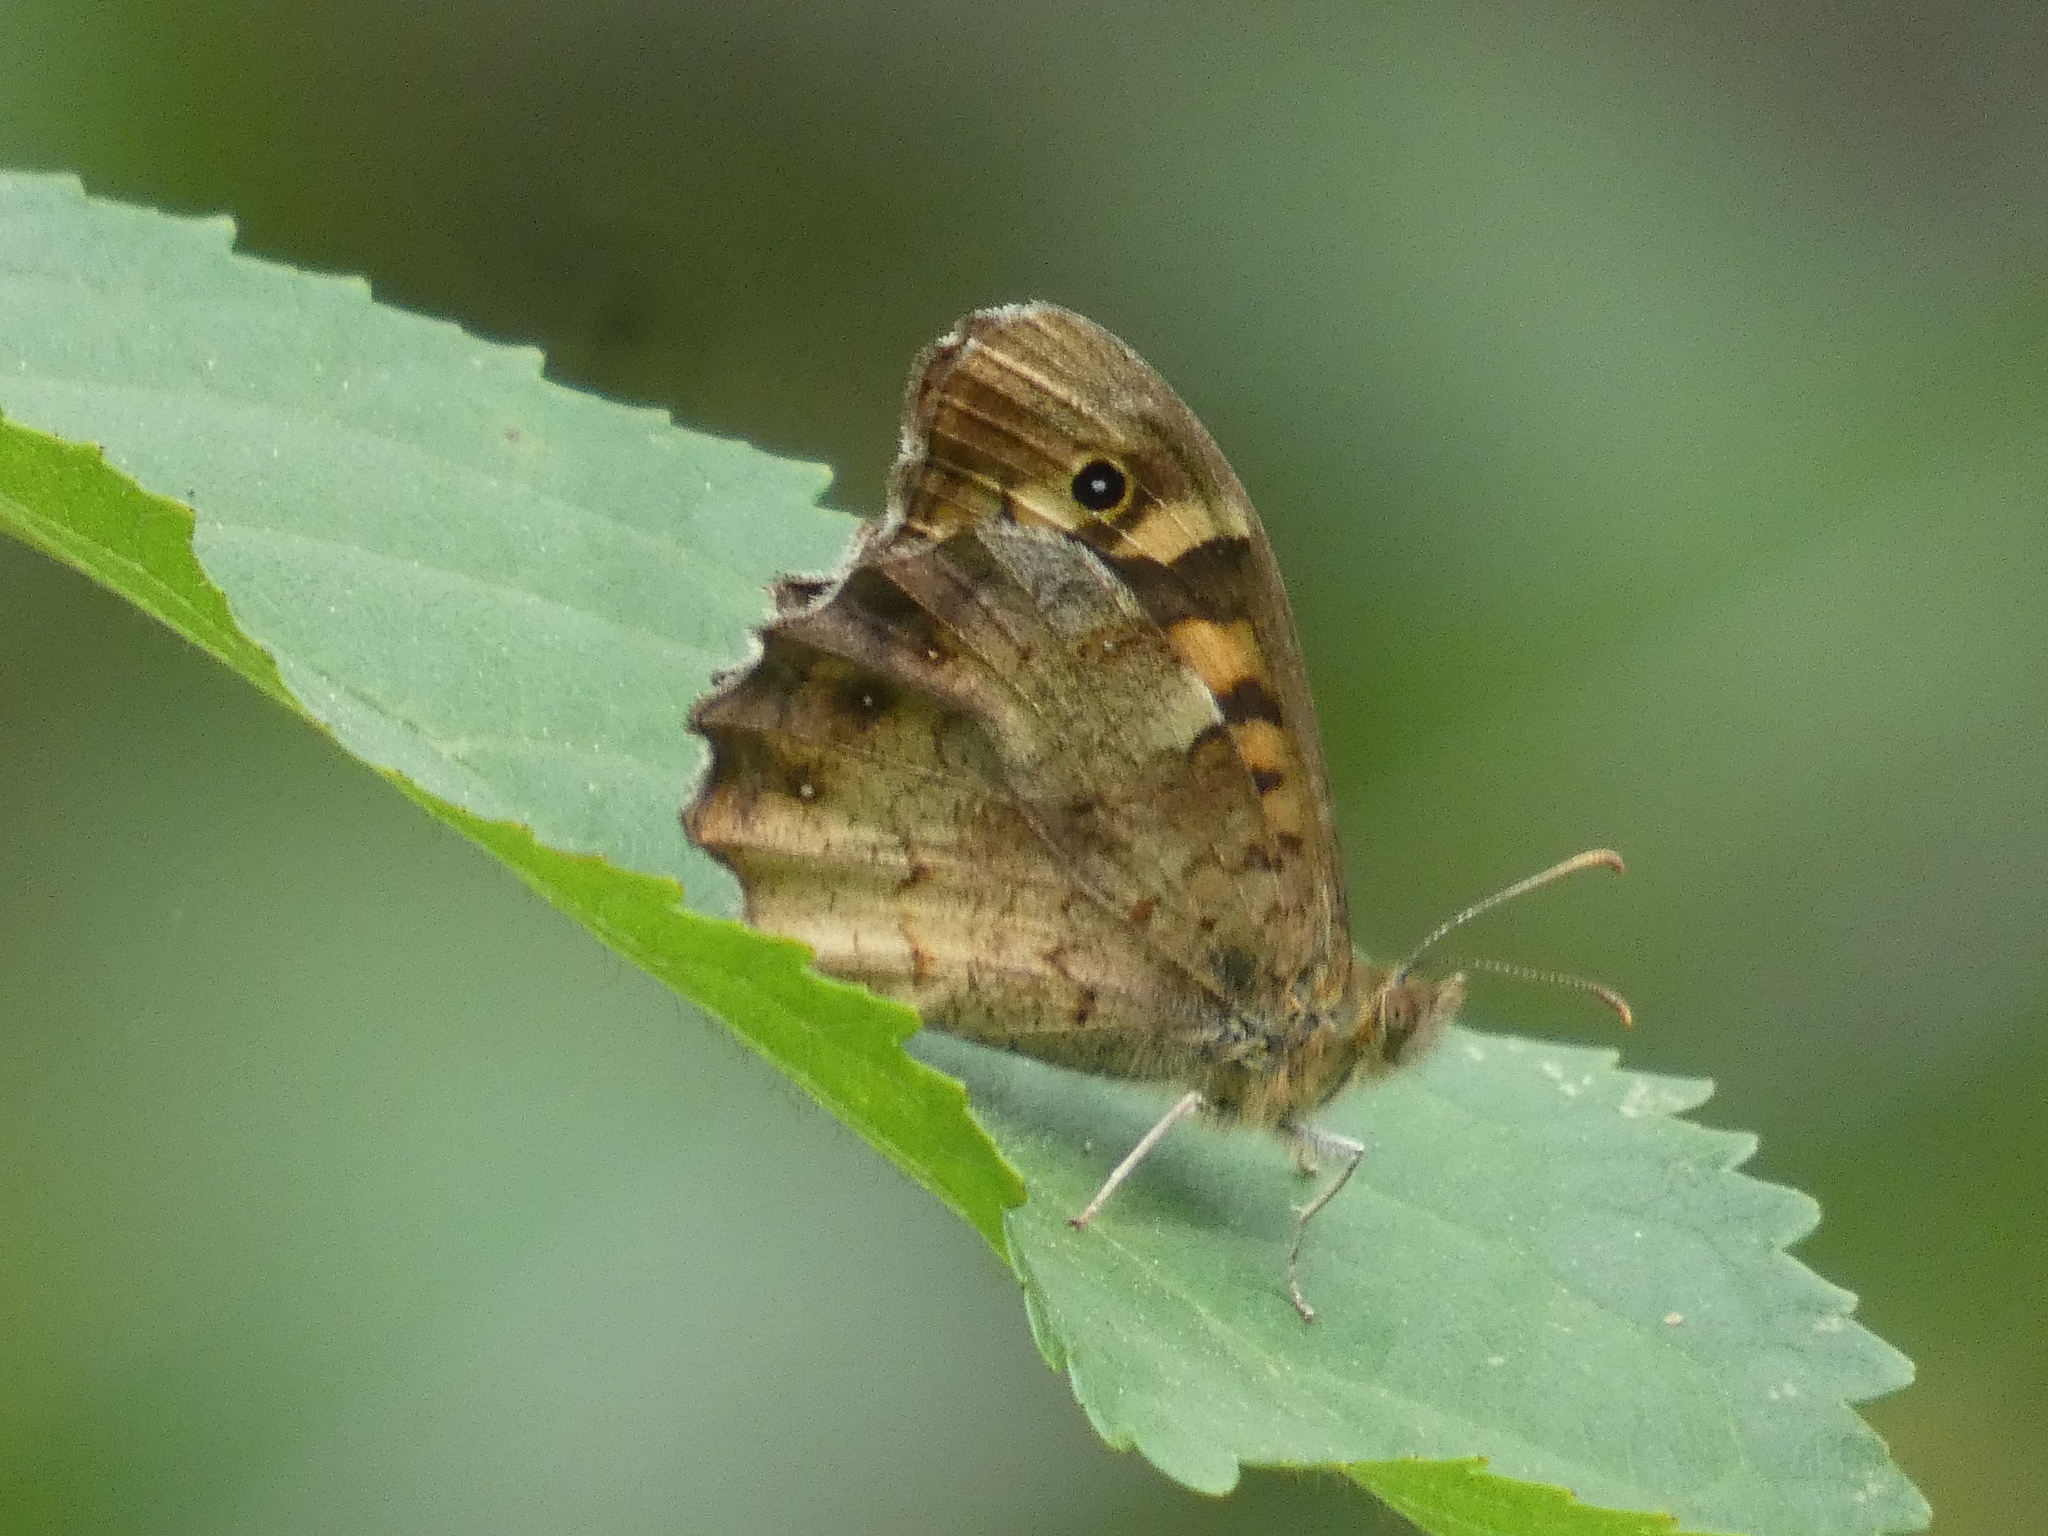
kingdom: Animalia
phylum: Arthropoda
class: Insecta
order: Lepidoptera
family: Nymphalidae
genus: Pararge
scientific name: Pararge aegeria
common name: Speckled wood
